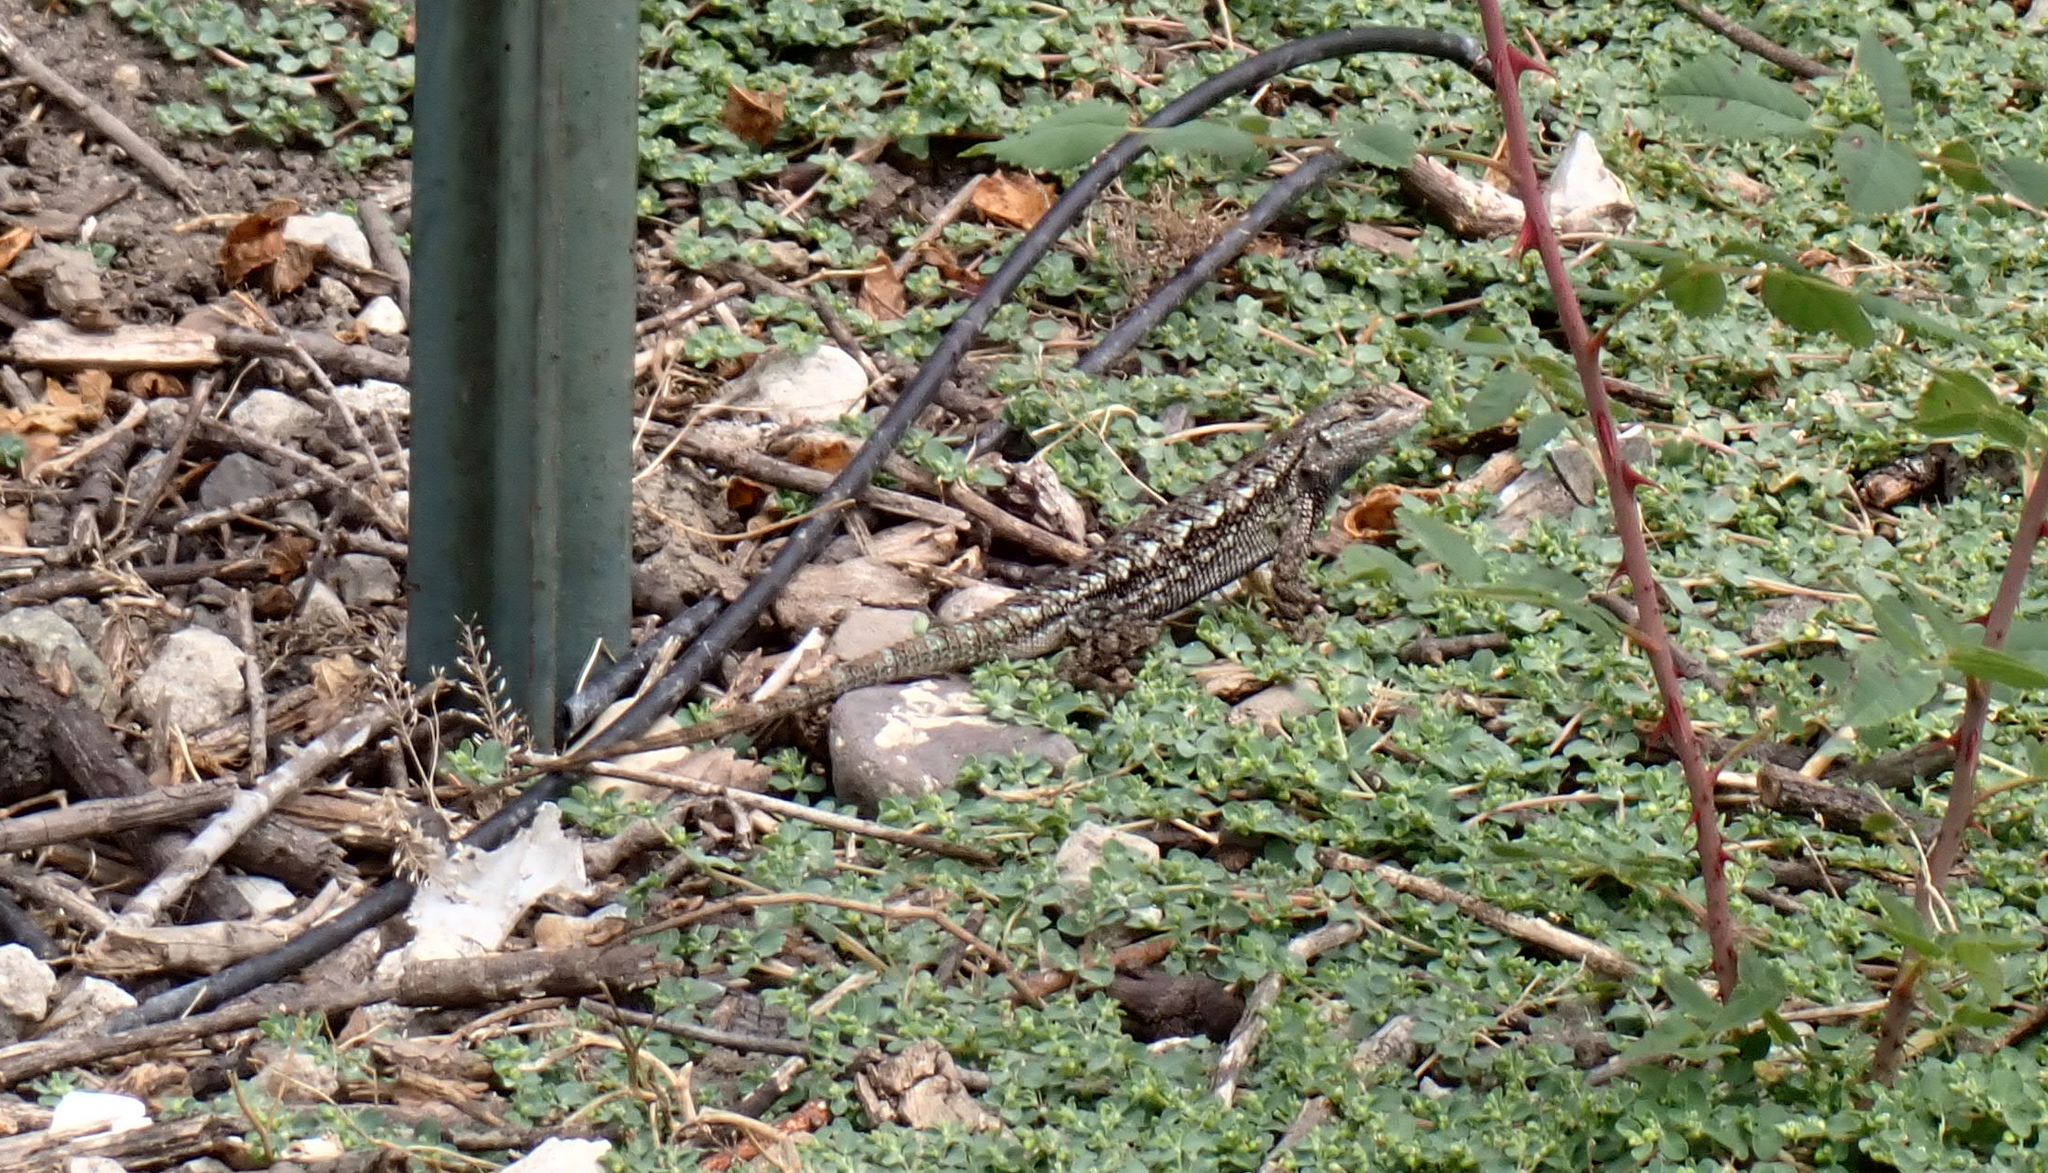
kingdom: Animalia
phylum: Chordata
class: Squamata
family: Phrynosomatidae
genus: Sceloporus
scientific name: Sceloporus occidentalis
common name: Western fence lizard
